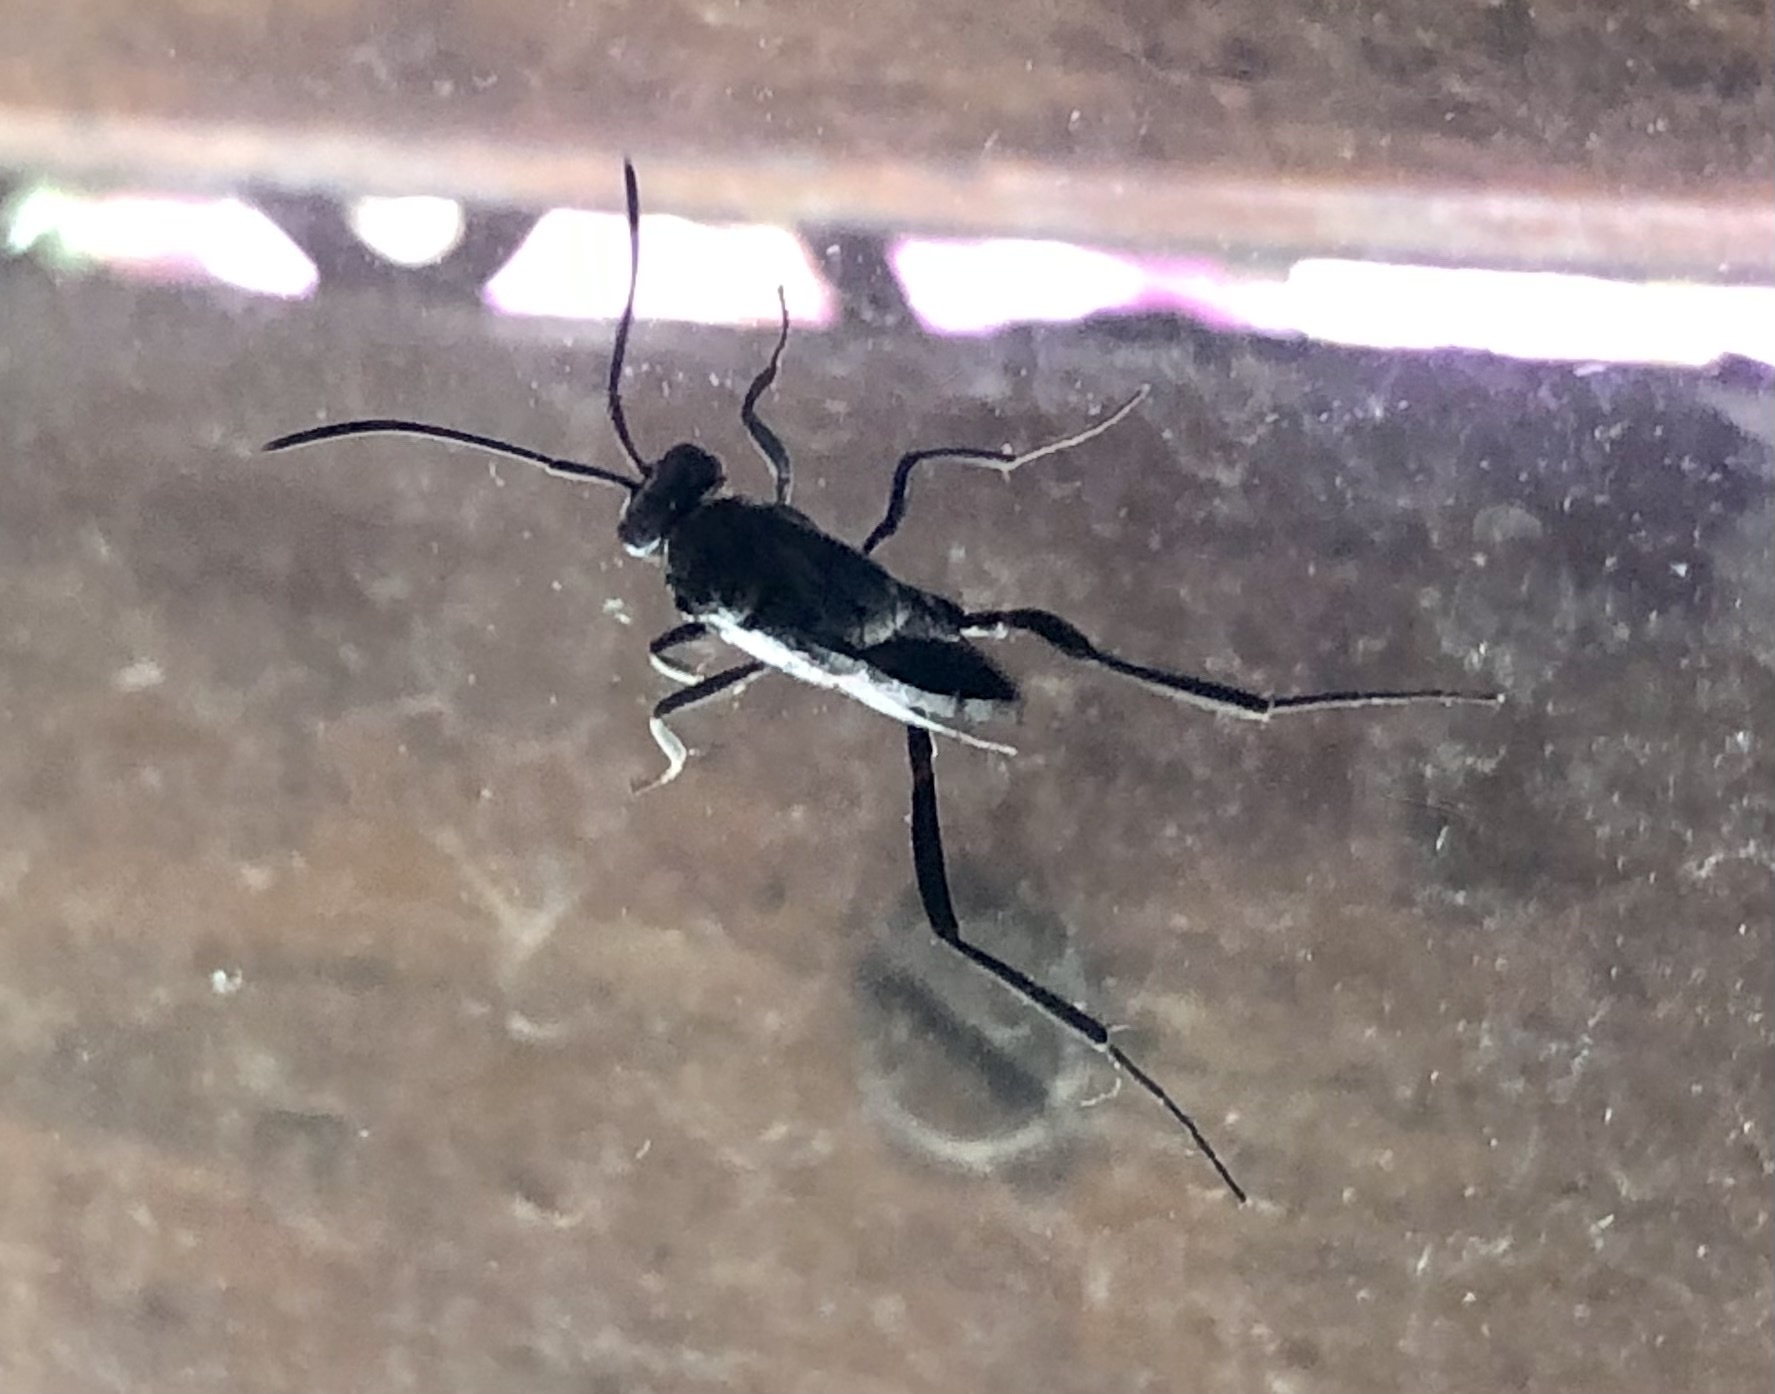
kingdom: Animalia
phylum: Arthropoda
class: Insecta
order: Hymenoptera
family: Evaniidae
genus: Evania
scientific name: Evania appendigaster
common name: Ensign wasp
